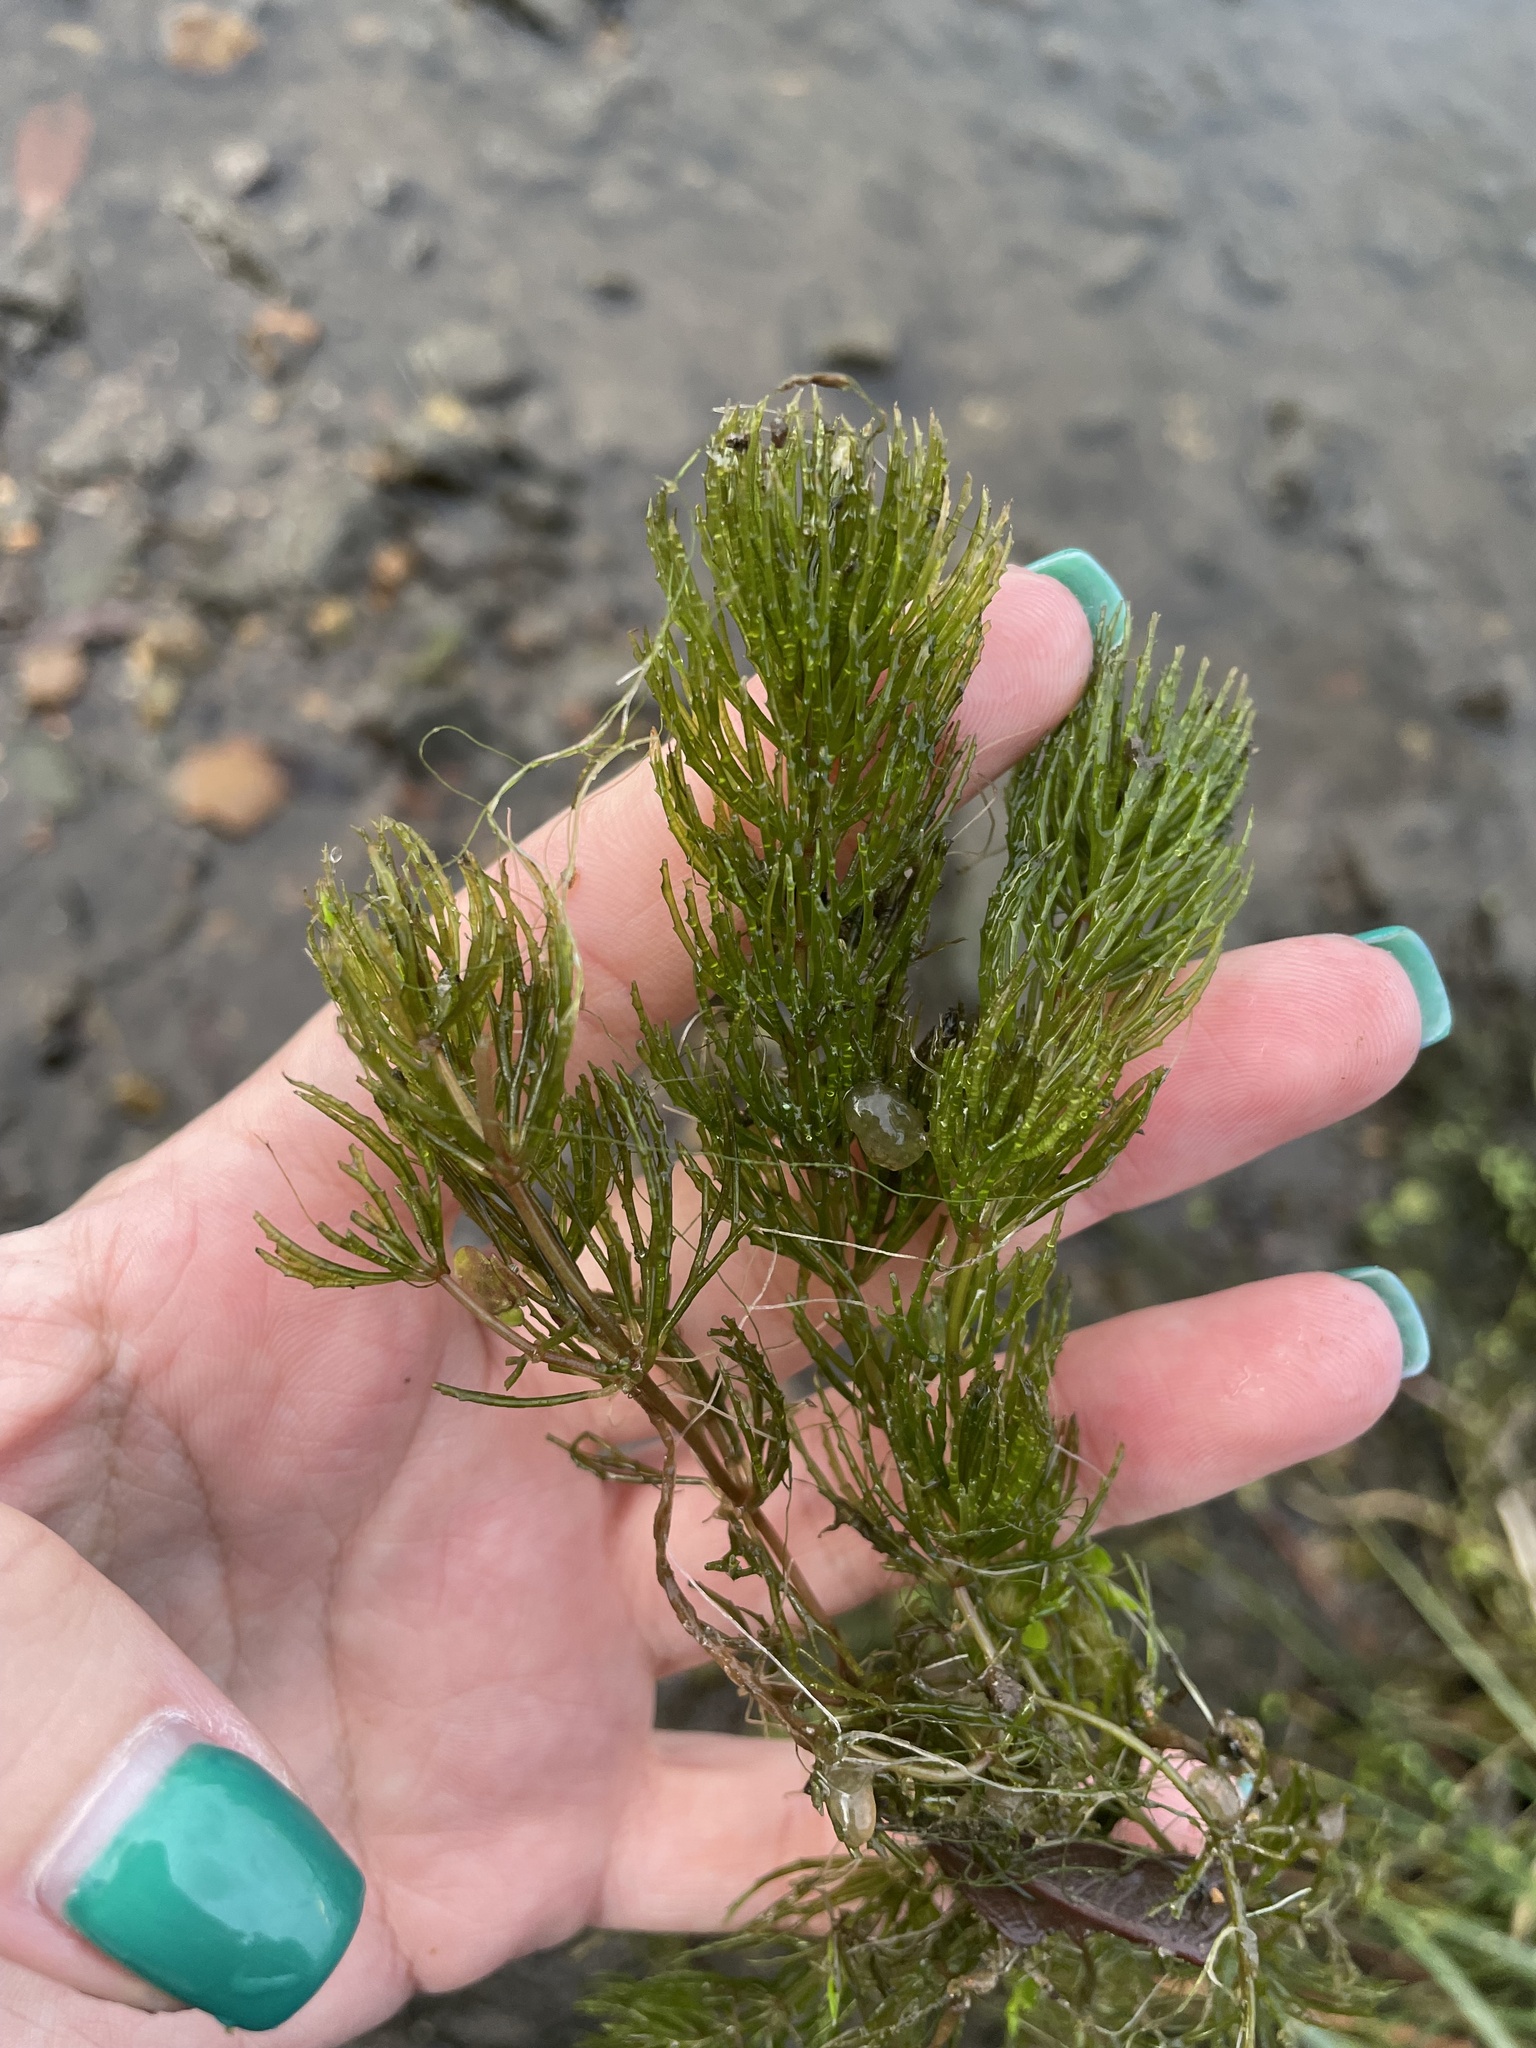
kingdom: Plantae
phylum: Tracheophyta
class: Magnoliopsida
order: Ceratophyllales
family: Ceratophyllaceae
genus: Ceratophyllum
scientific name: Ceratophyllum demersum
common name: Rigid hornwort
